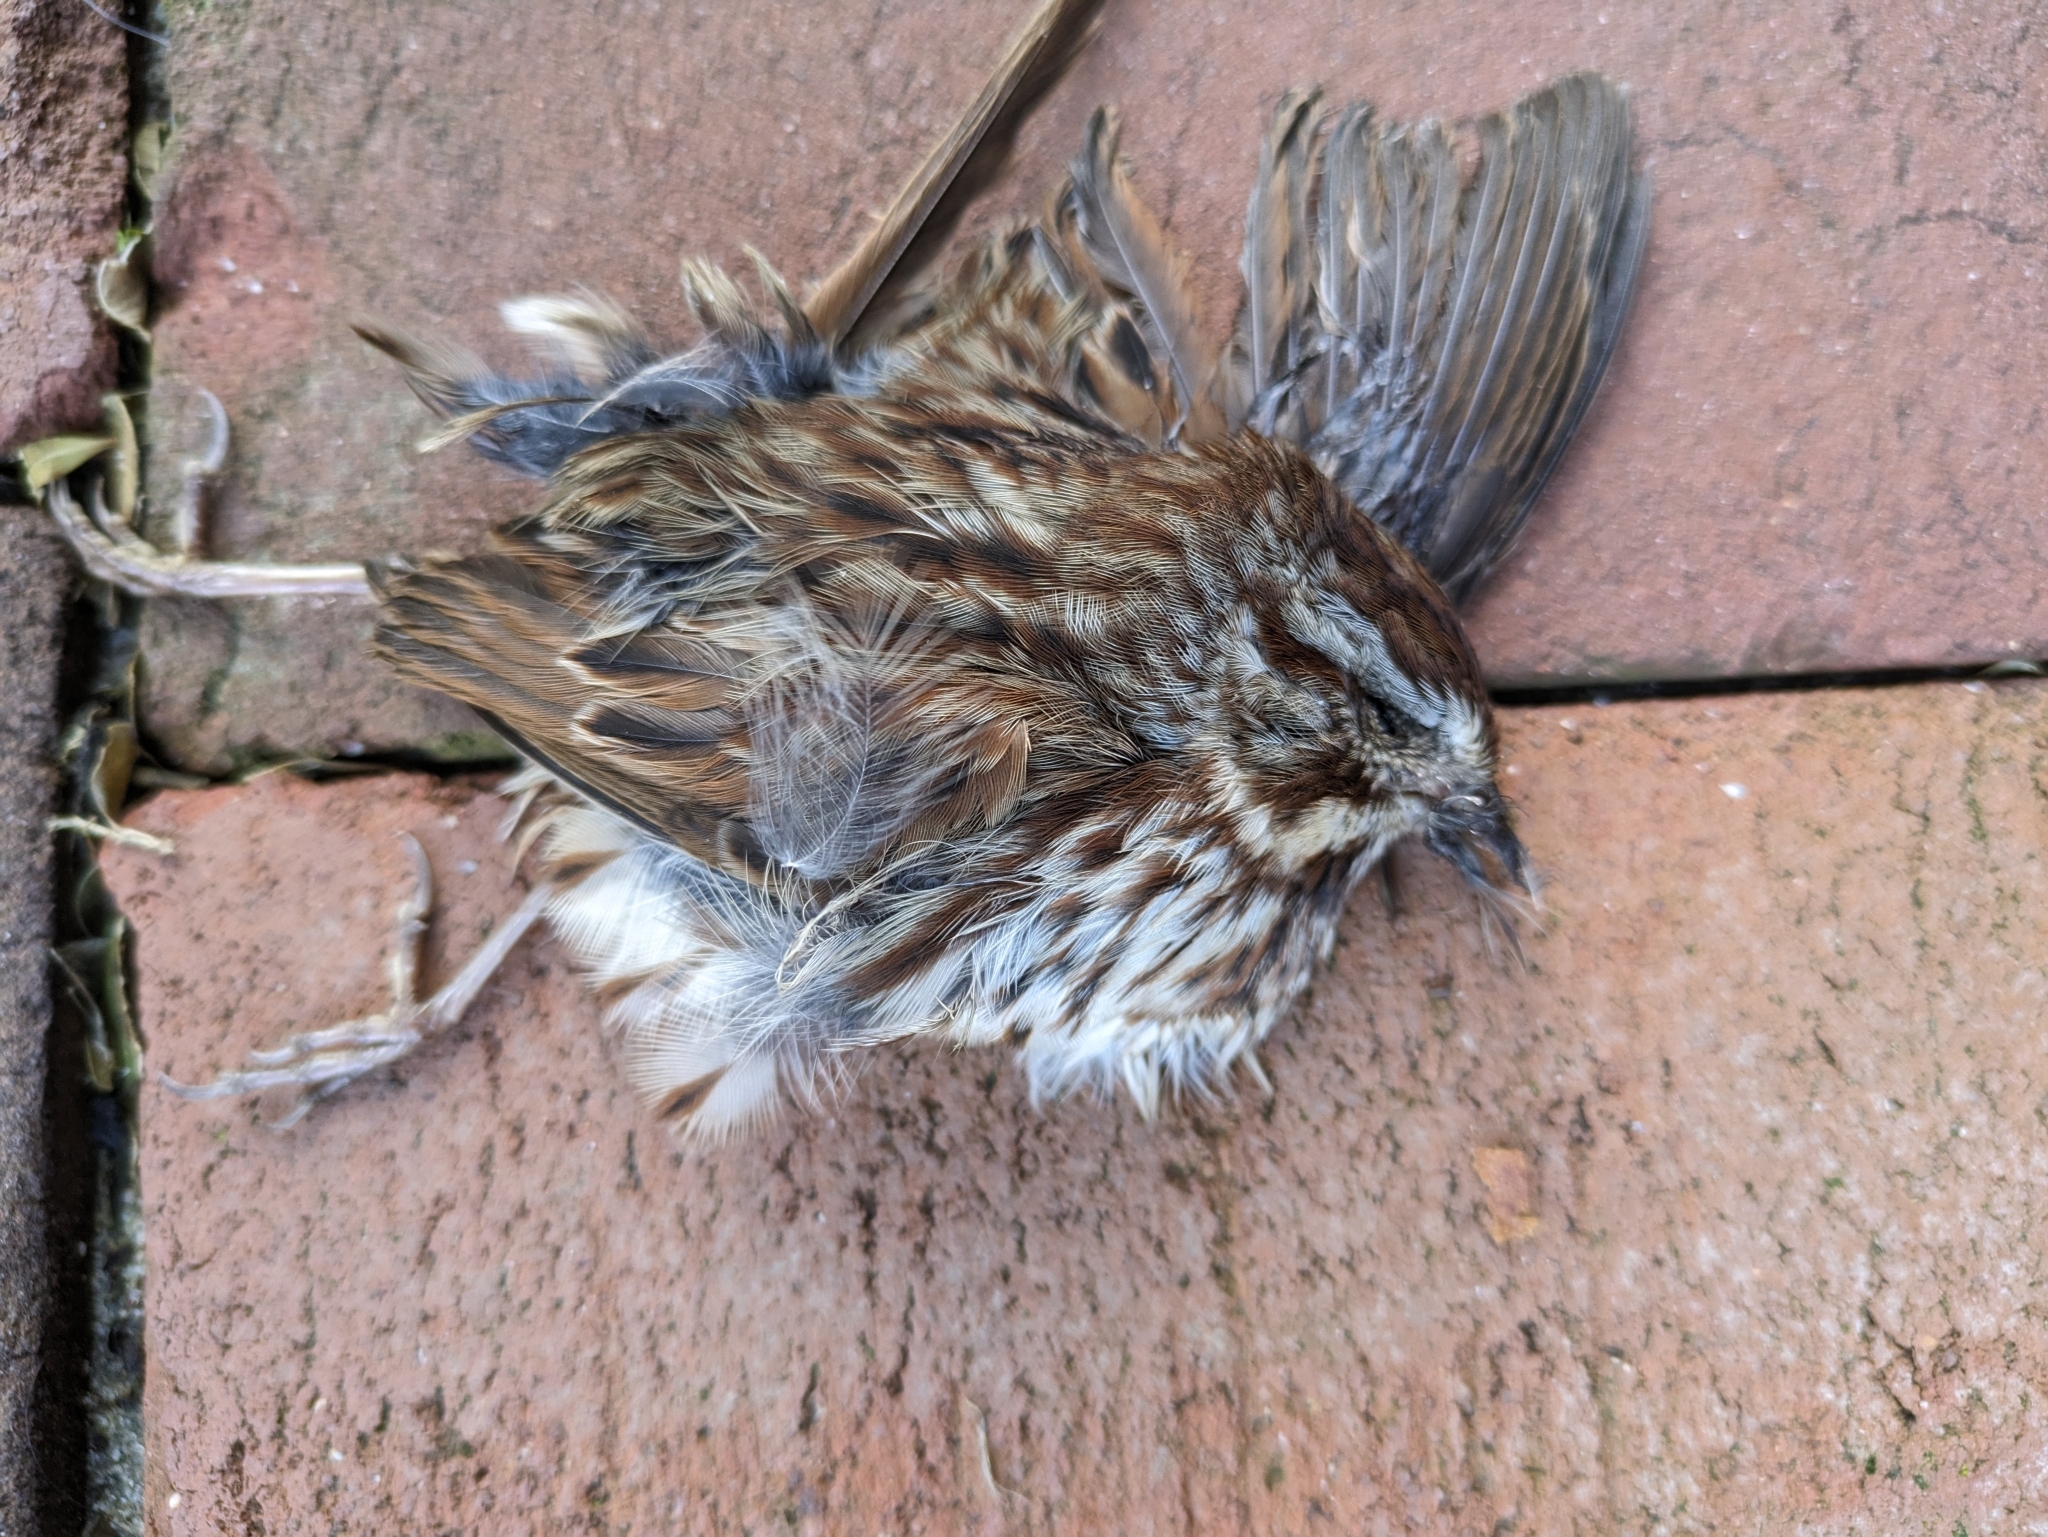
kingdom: Animalia
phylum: Chordata
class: Aves
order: Passeriformes
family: Passerellidae
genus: Melospiza
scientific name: Melospiza melodia
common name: Song sparrow
